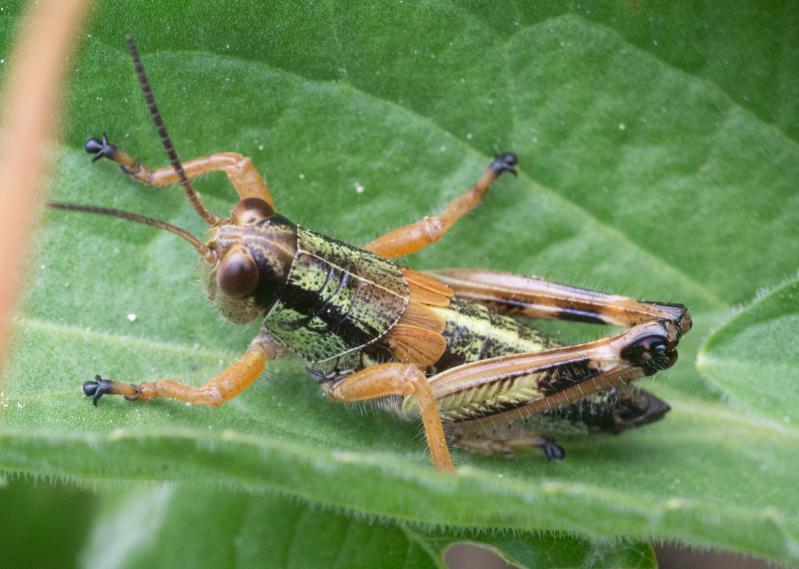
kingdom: Animalia
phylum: Arthropoda
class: Insecta
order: Orthoptera
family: Acrididae
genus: Miramella
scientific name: Miramella alpina
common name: Green mountain grasshopper
